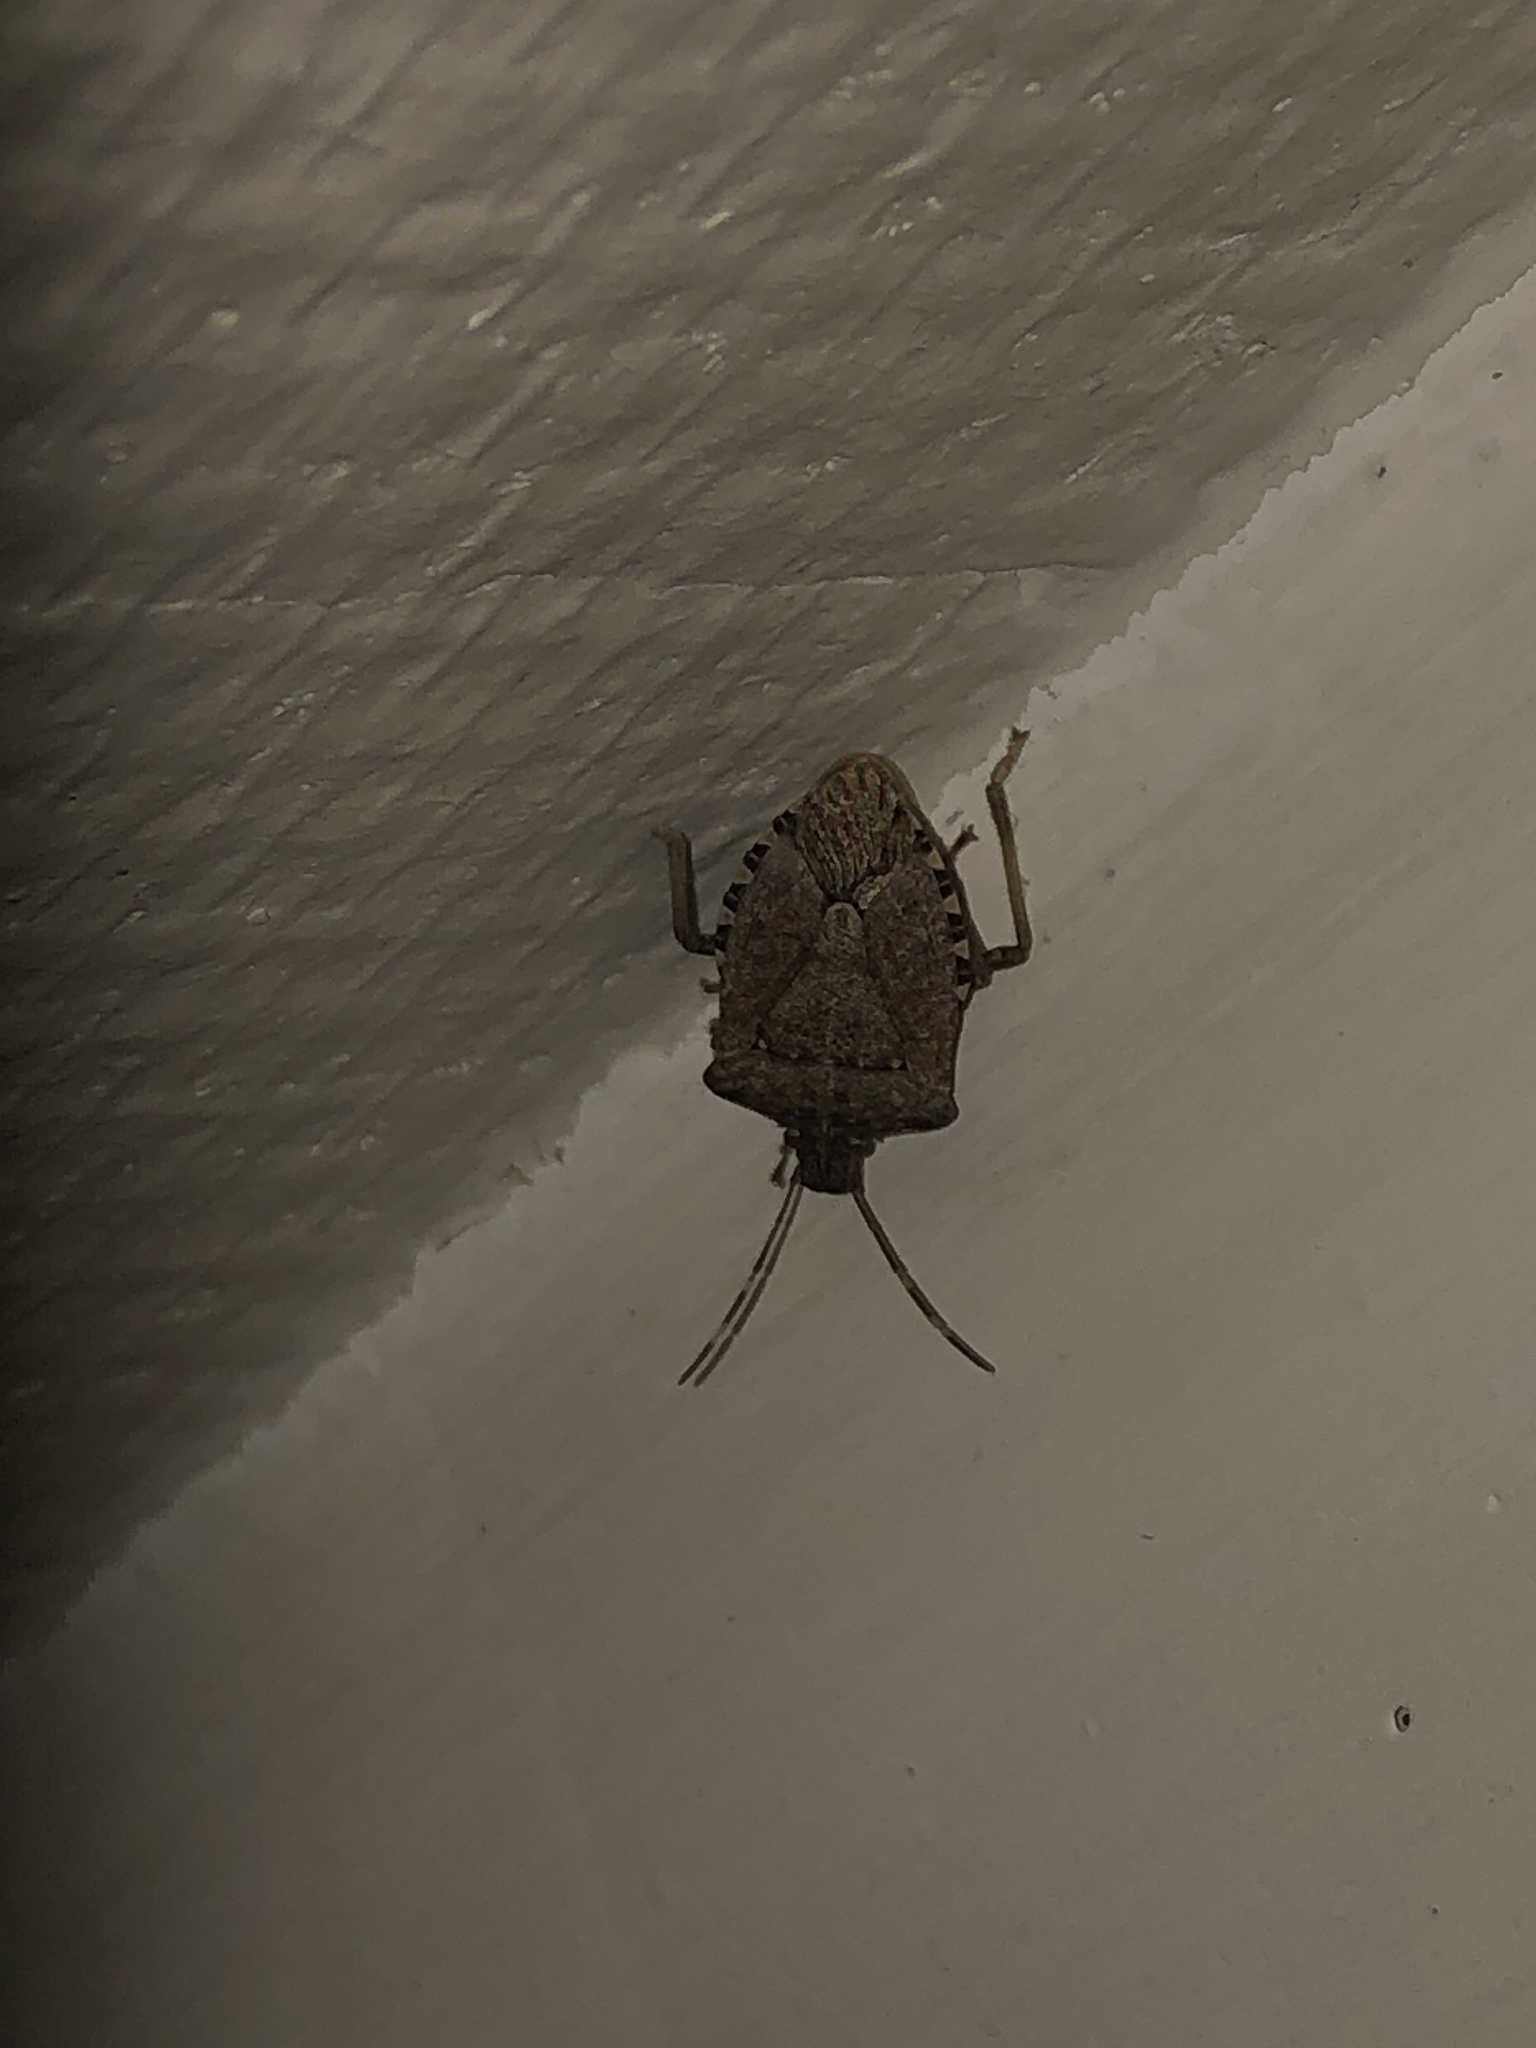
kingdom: Animalia
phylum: Arthropoda
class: Insecta
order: Hemiptera
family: Pentatomidae
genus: Halyomorpha
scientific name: Halyomorpha halys
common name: Brown marmorated stink bug
